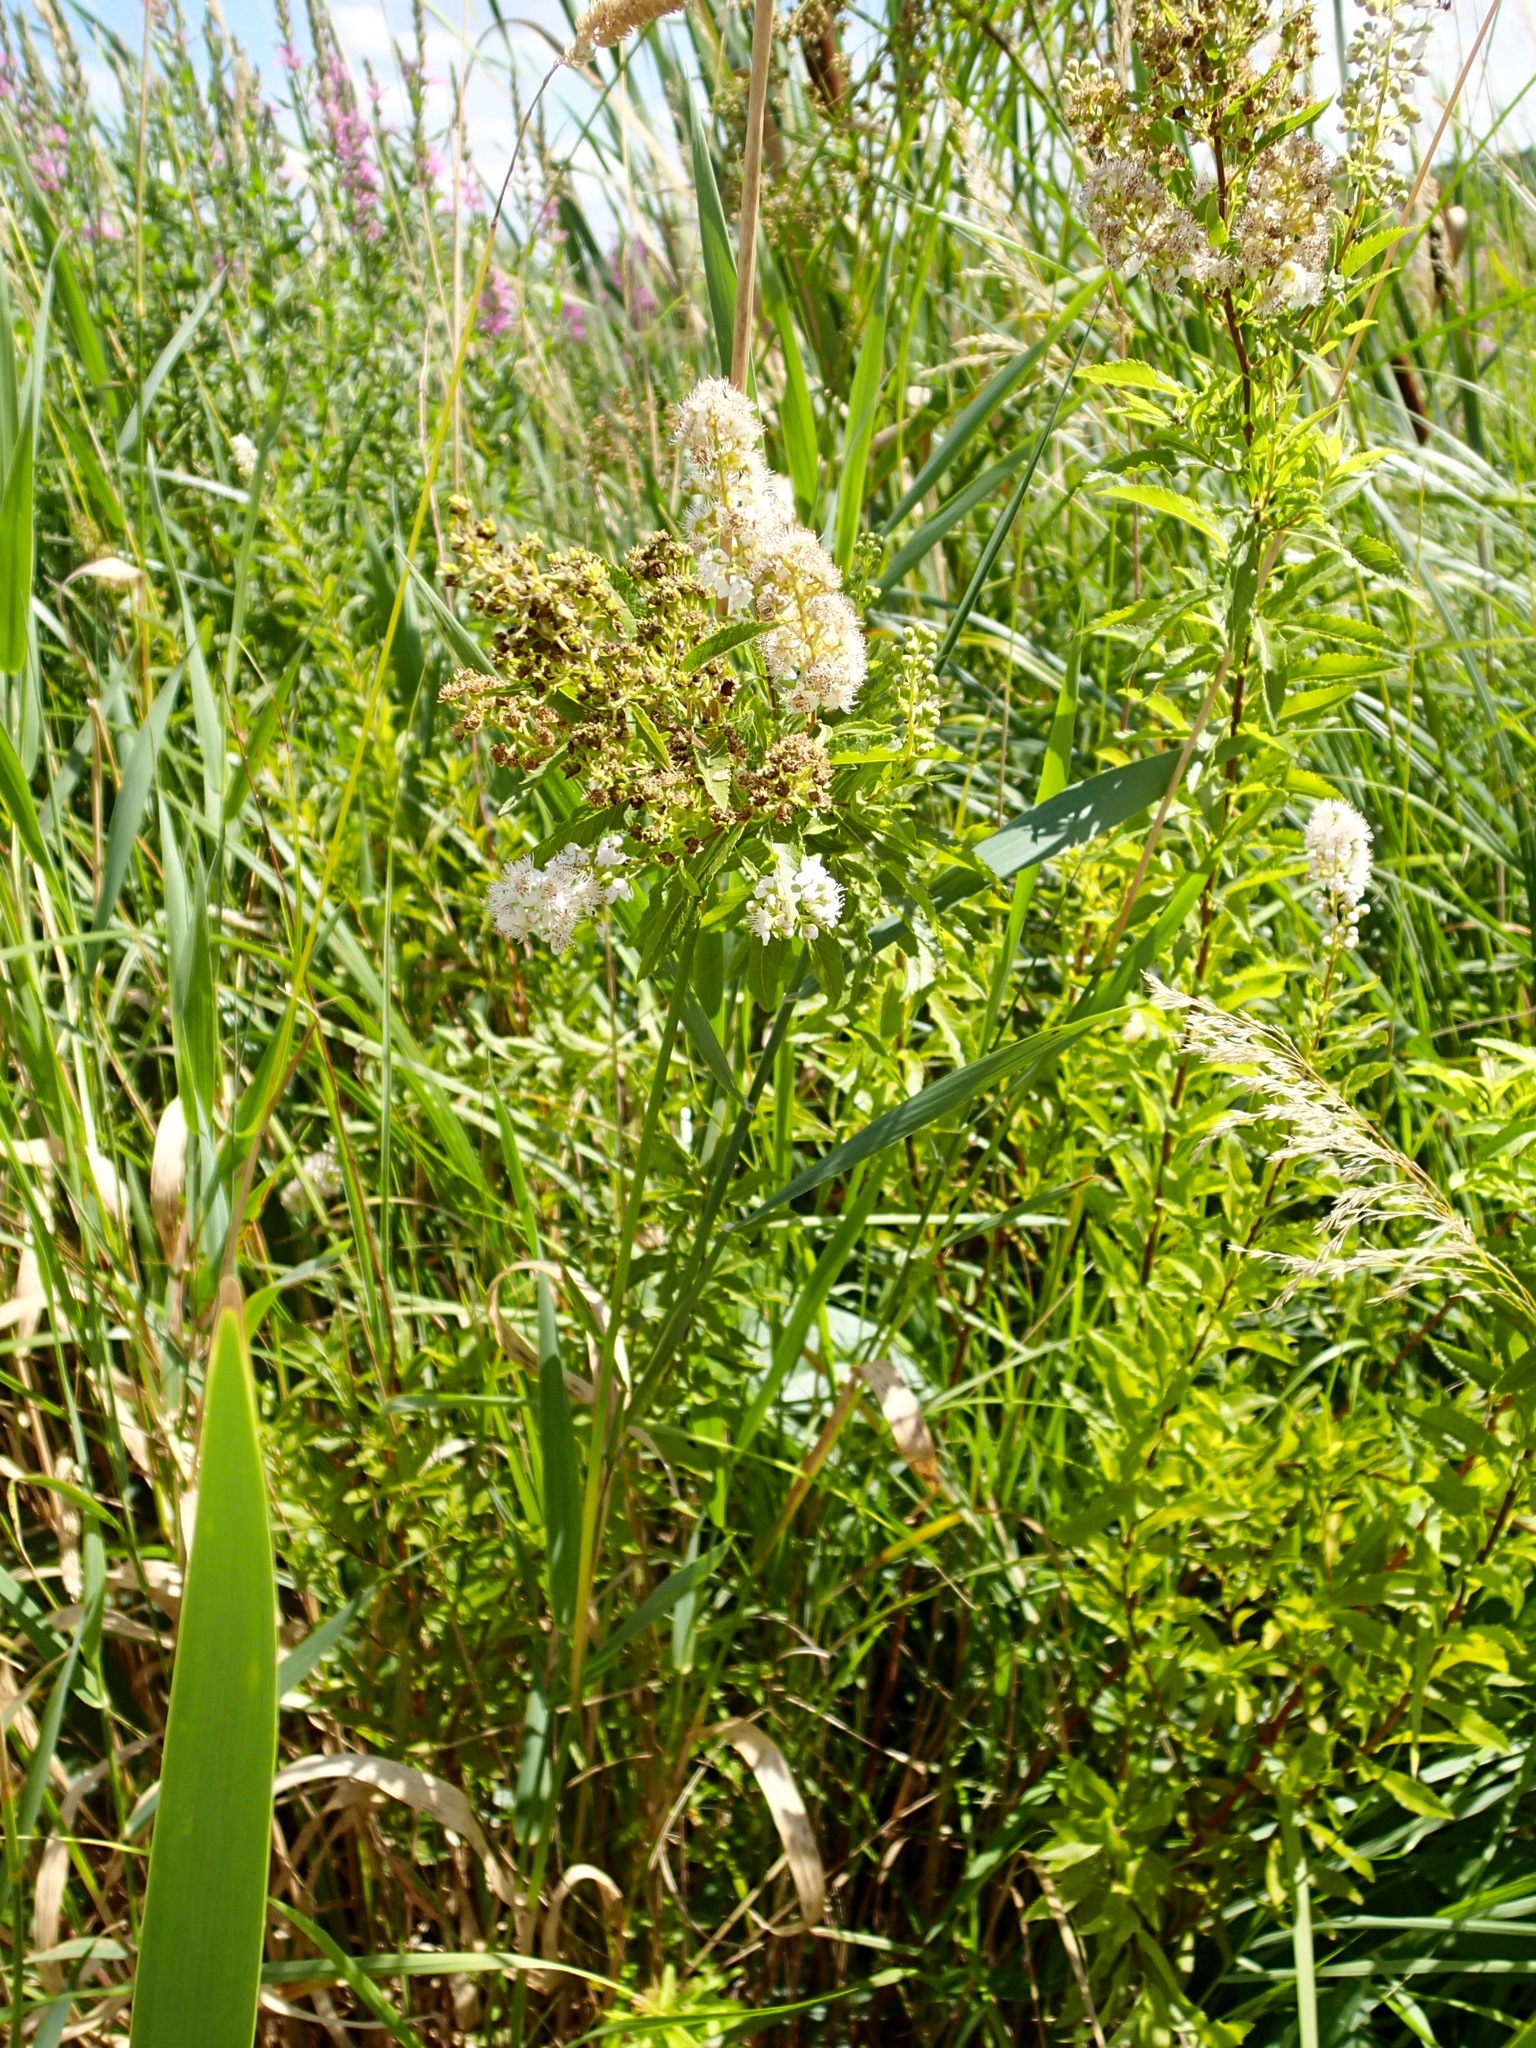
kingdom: Plantae
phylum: Tracheophyta
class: Magnoliopsida
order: Rosales
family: Rosaceae
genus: Spiraea
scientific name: Spiraea alba
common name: Pale bridewort
